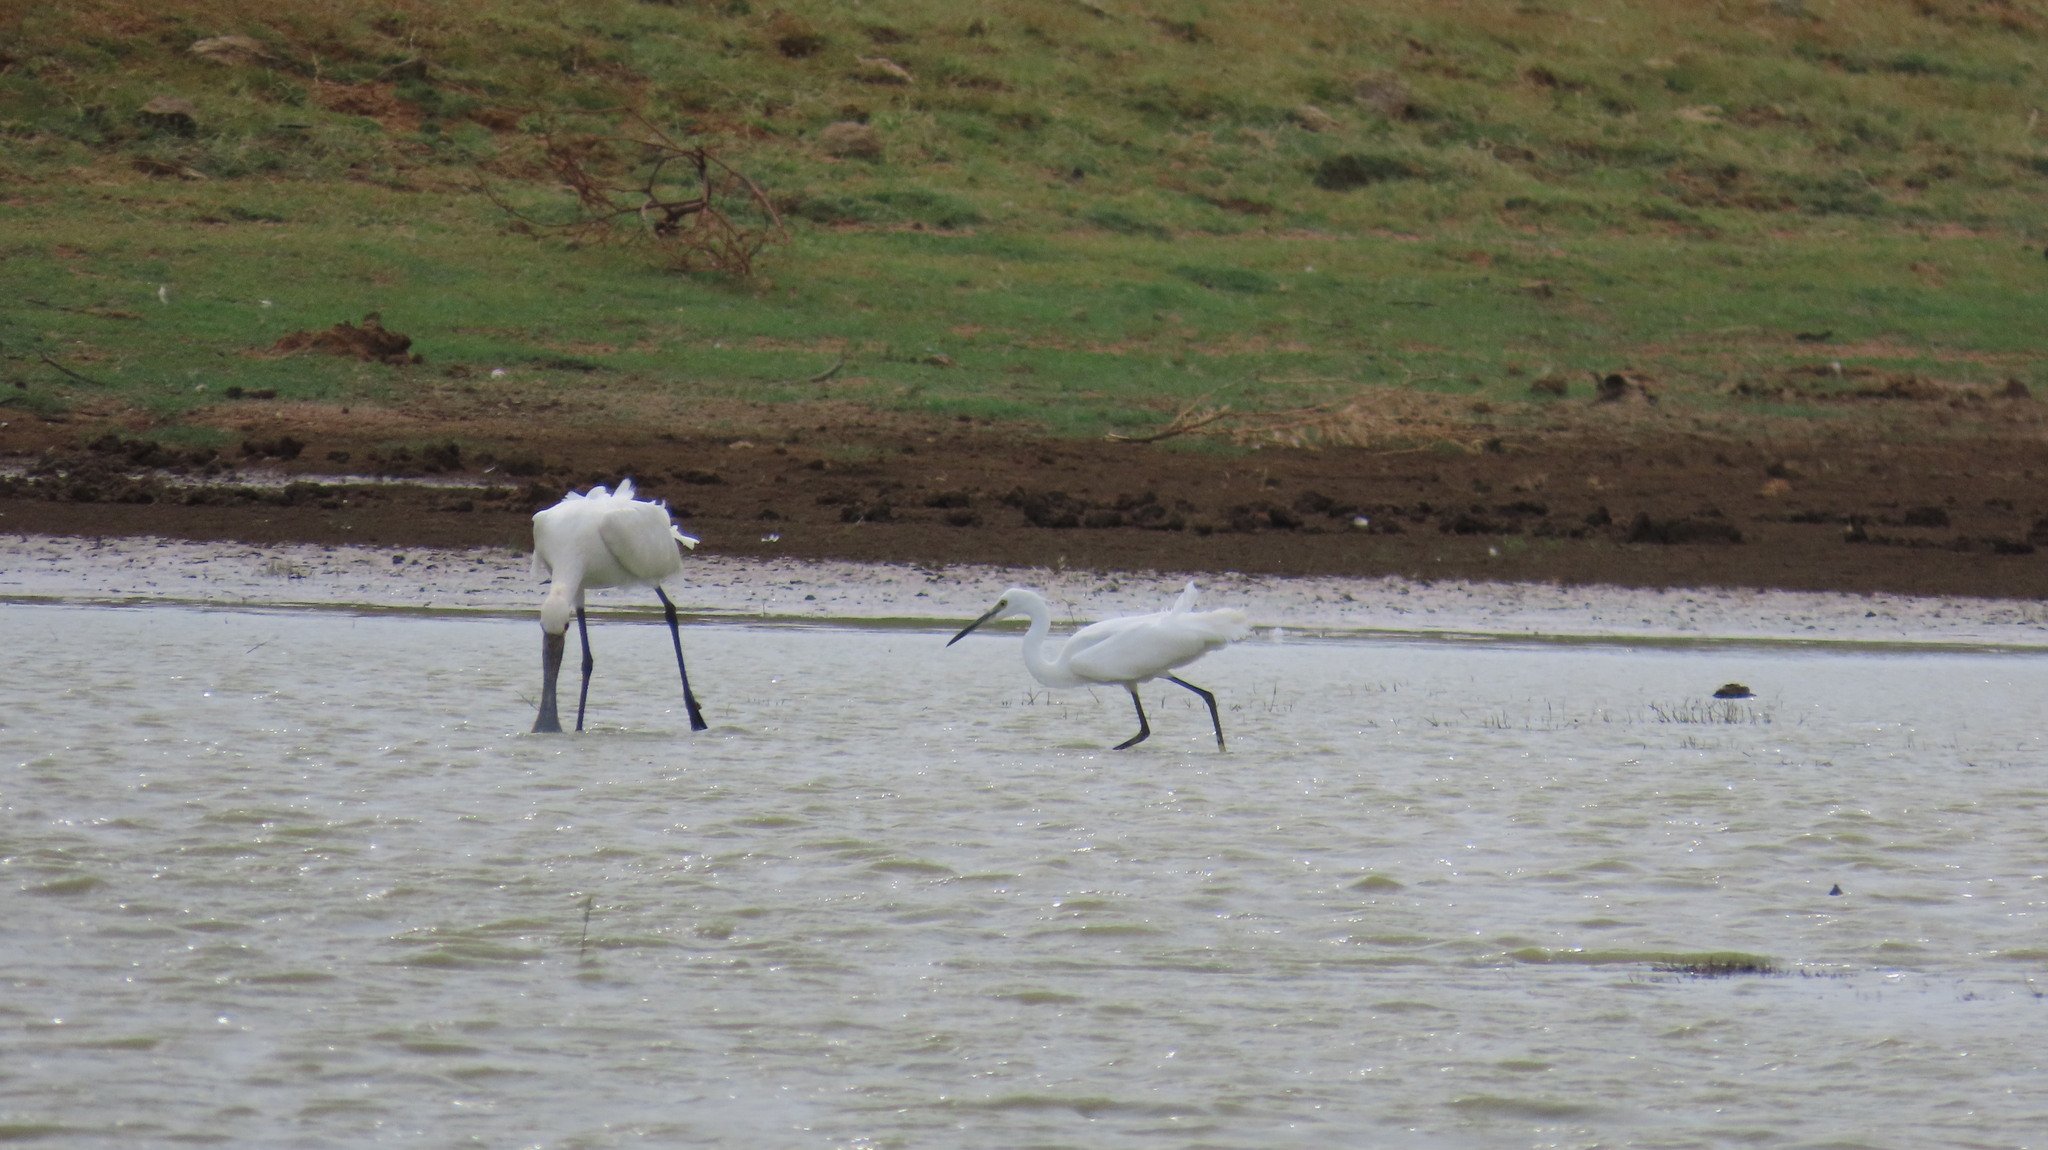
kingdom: Animalia
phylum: Chordata
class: Aves
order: Pelecaniformes
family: Threskiornithidae
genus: Platalea
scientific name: Platalea leucorodia
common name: Eurasian spoonbill
